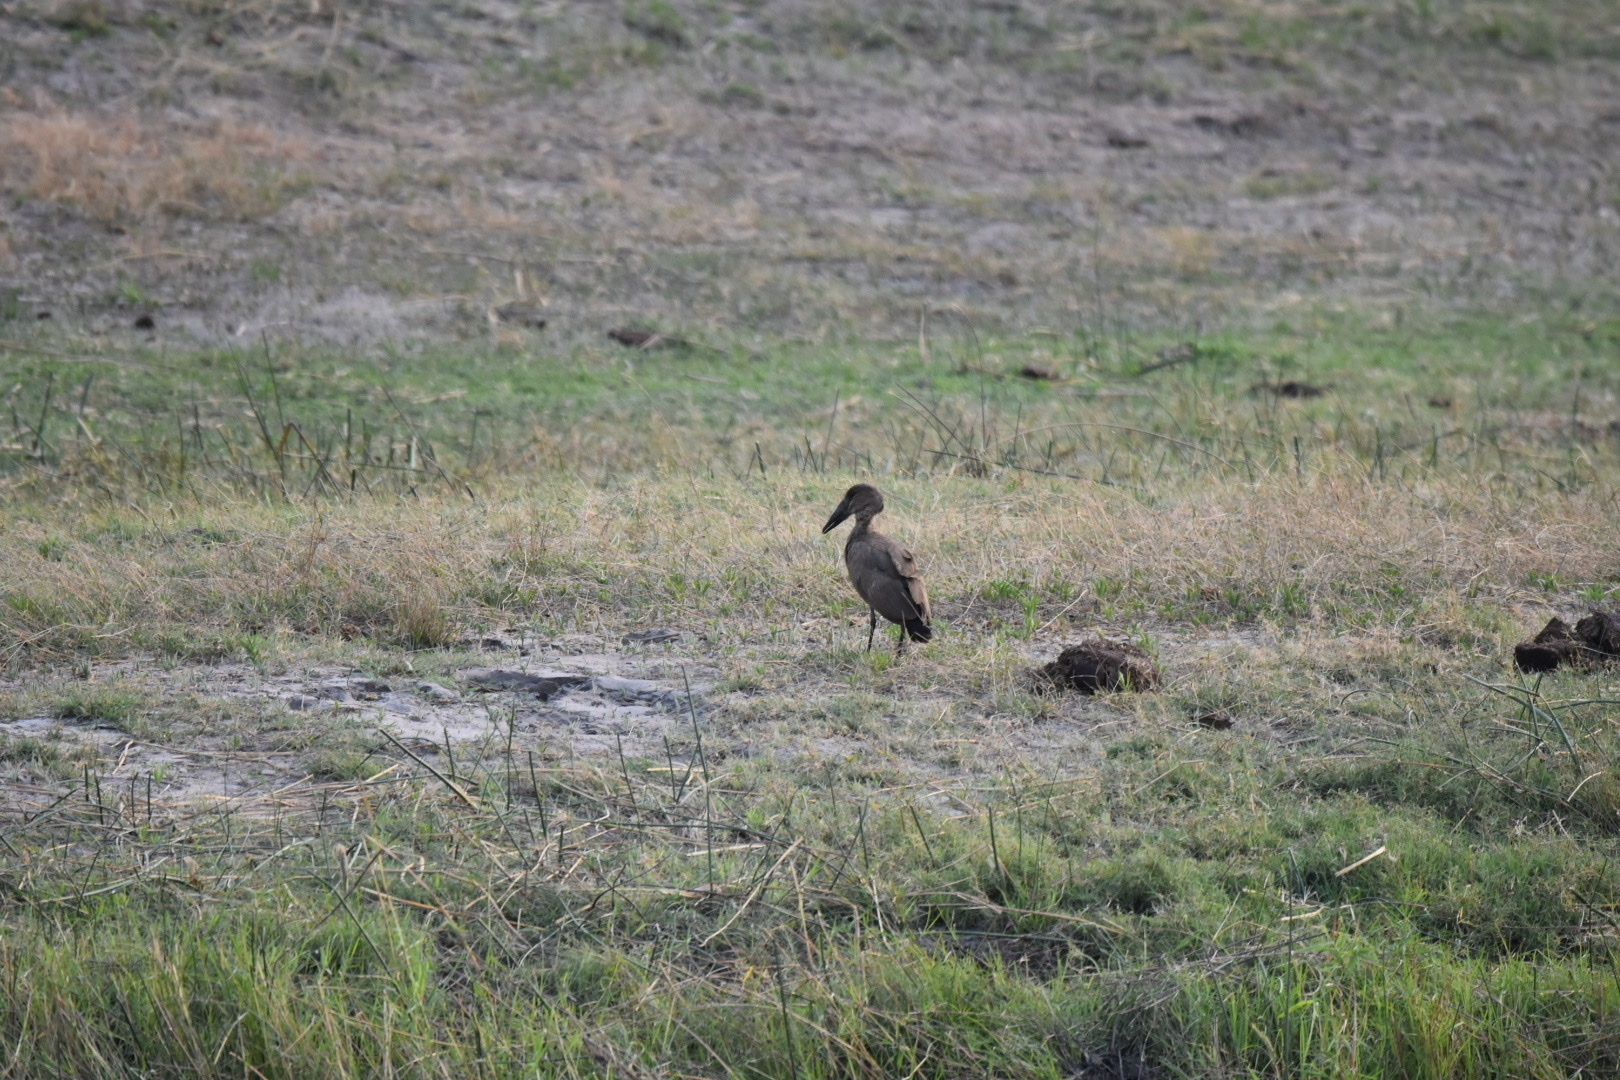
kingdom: Animalia
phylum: Chordata
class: Aves
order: Pelecaniformes
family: Scopidae
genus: Scopus
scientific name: Scopus umbretta
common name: Hamerkop
